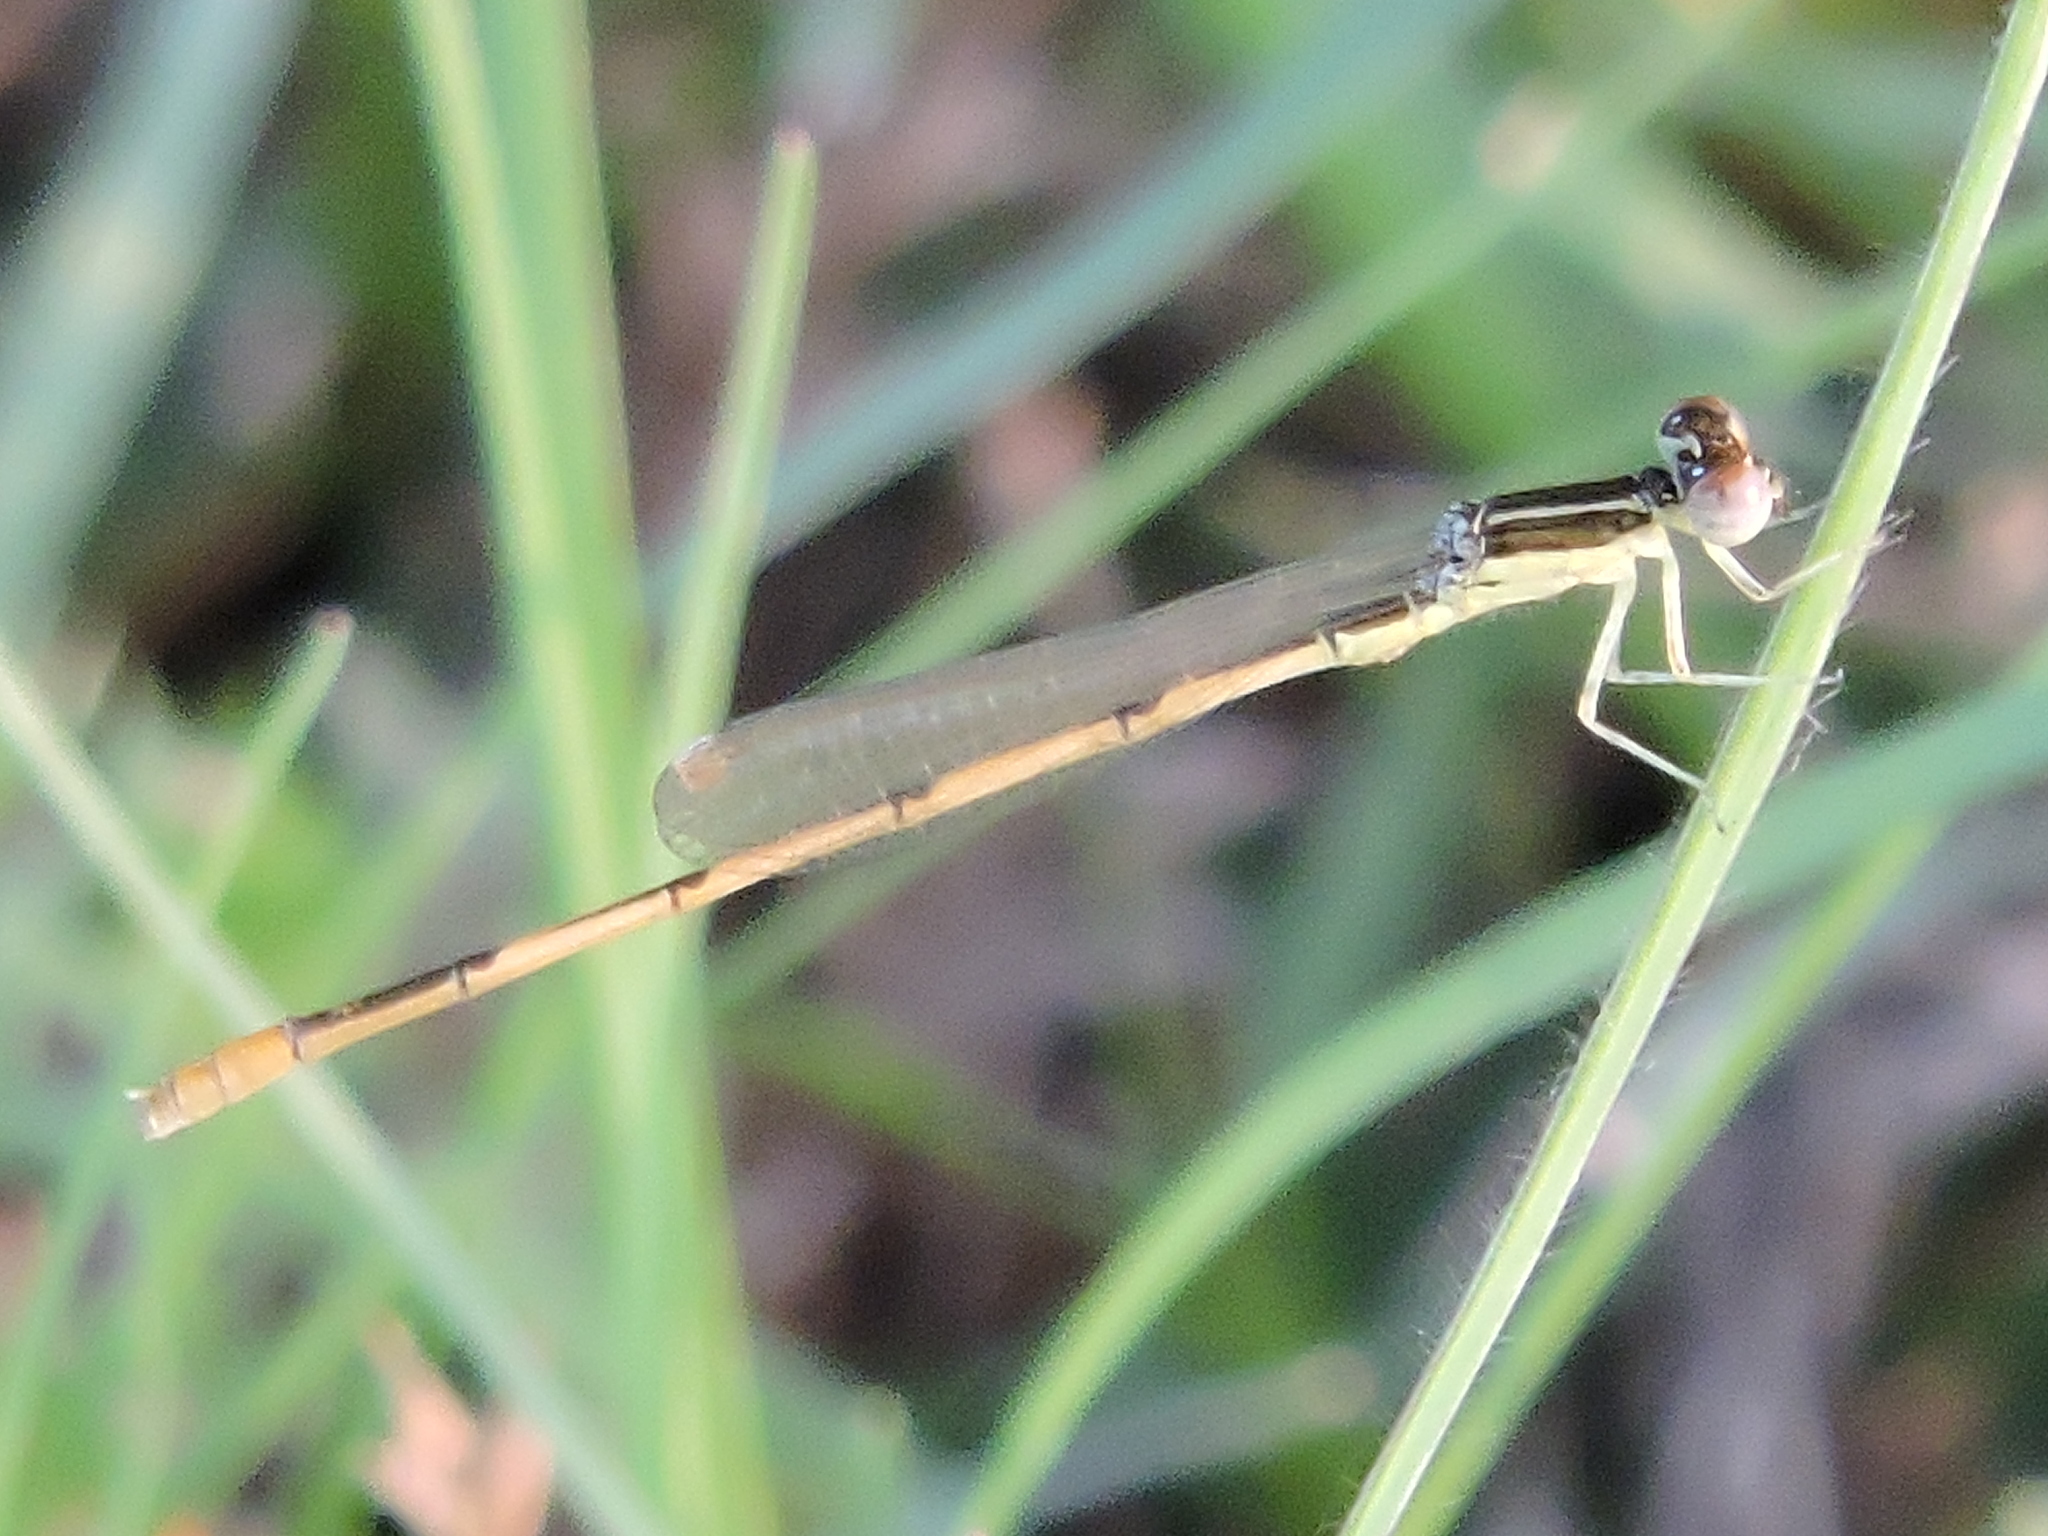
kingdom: Animalia
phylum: Arthropoda
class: Insecta
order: Odonata
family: Coenagrionidae
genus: Ischnura
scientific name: Ischnura hastata
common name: Citrine forktail
